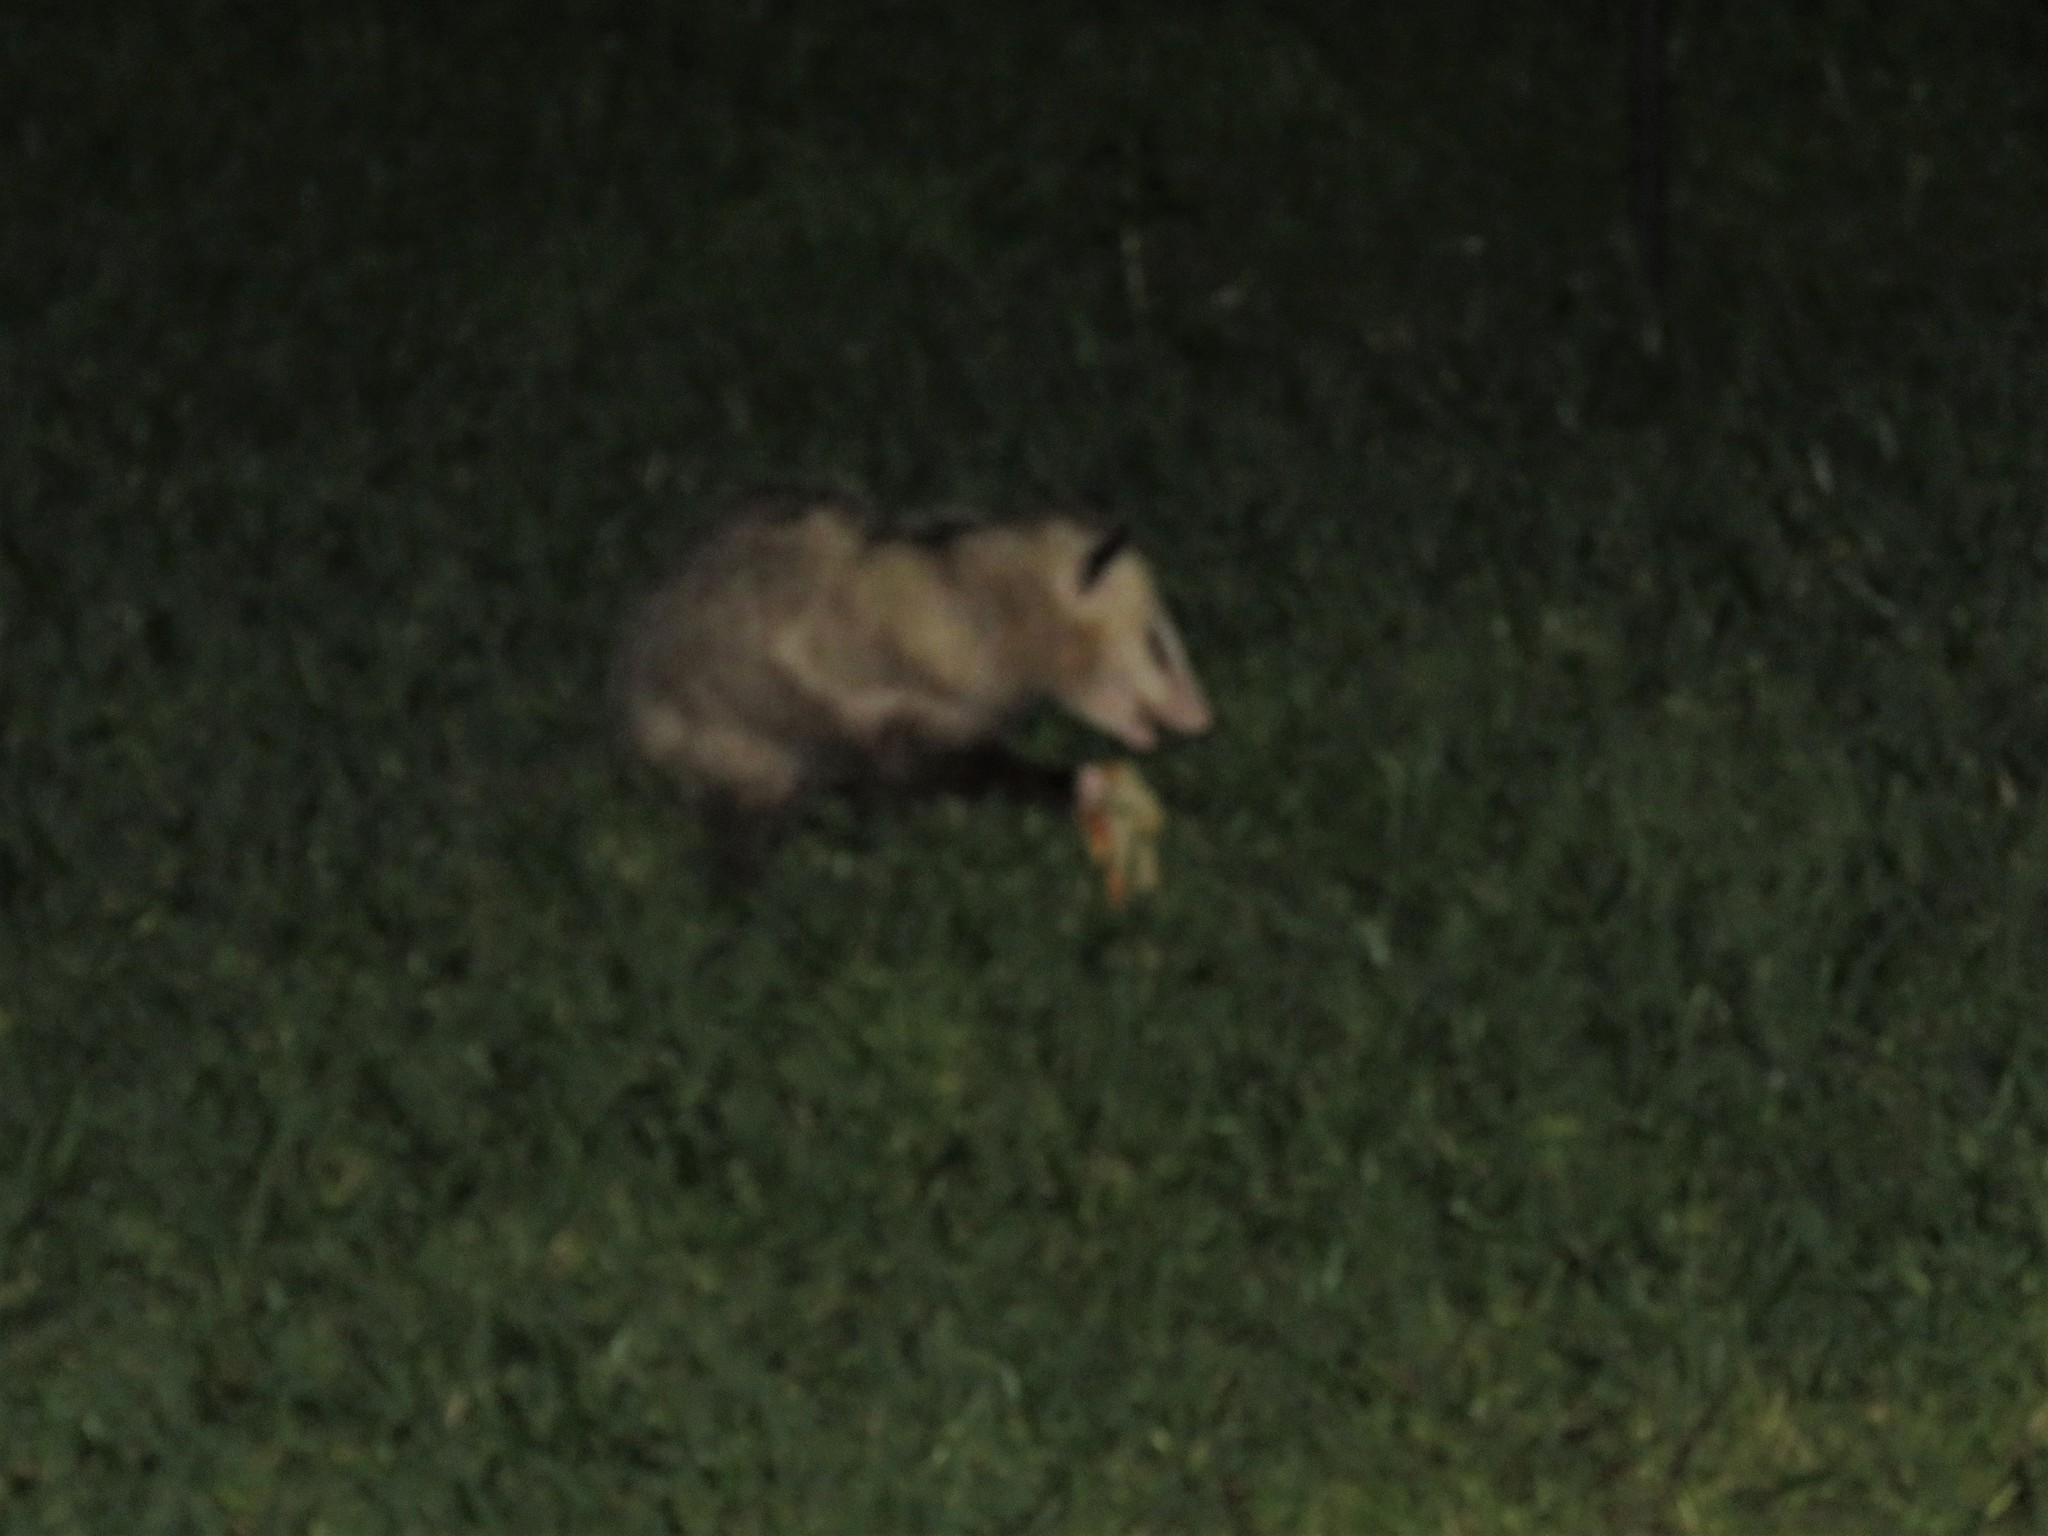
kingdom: Animalia
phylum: Chordata
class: Mammalia
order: Didelphimorphia
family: Didelphidae
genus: Didelphis
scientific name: Didelphis virginiana
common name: Virginia opossum
